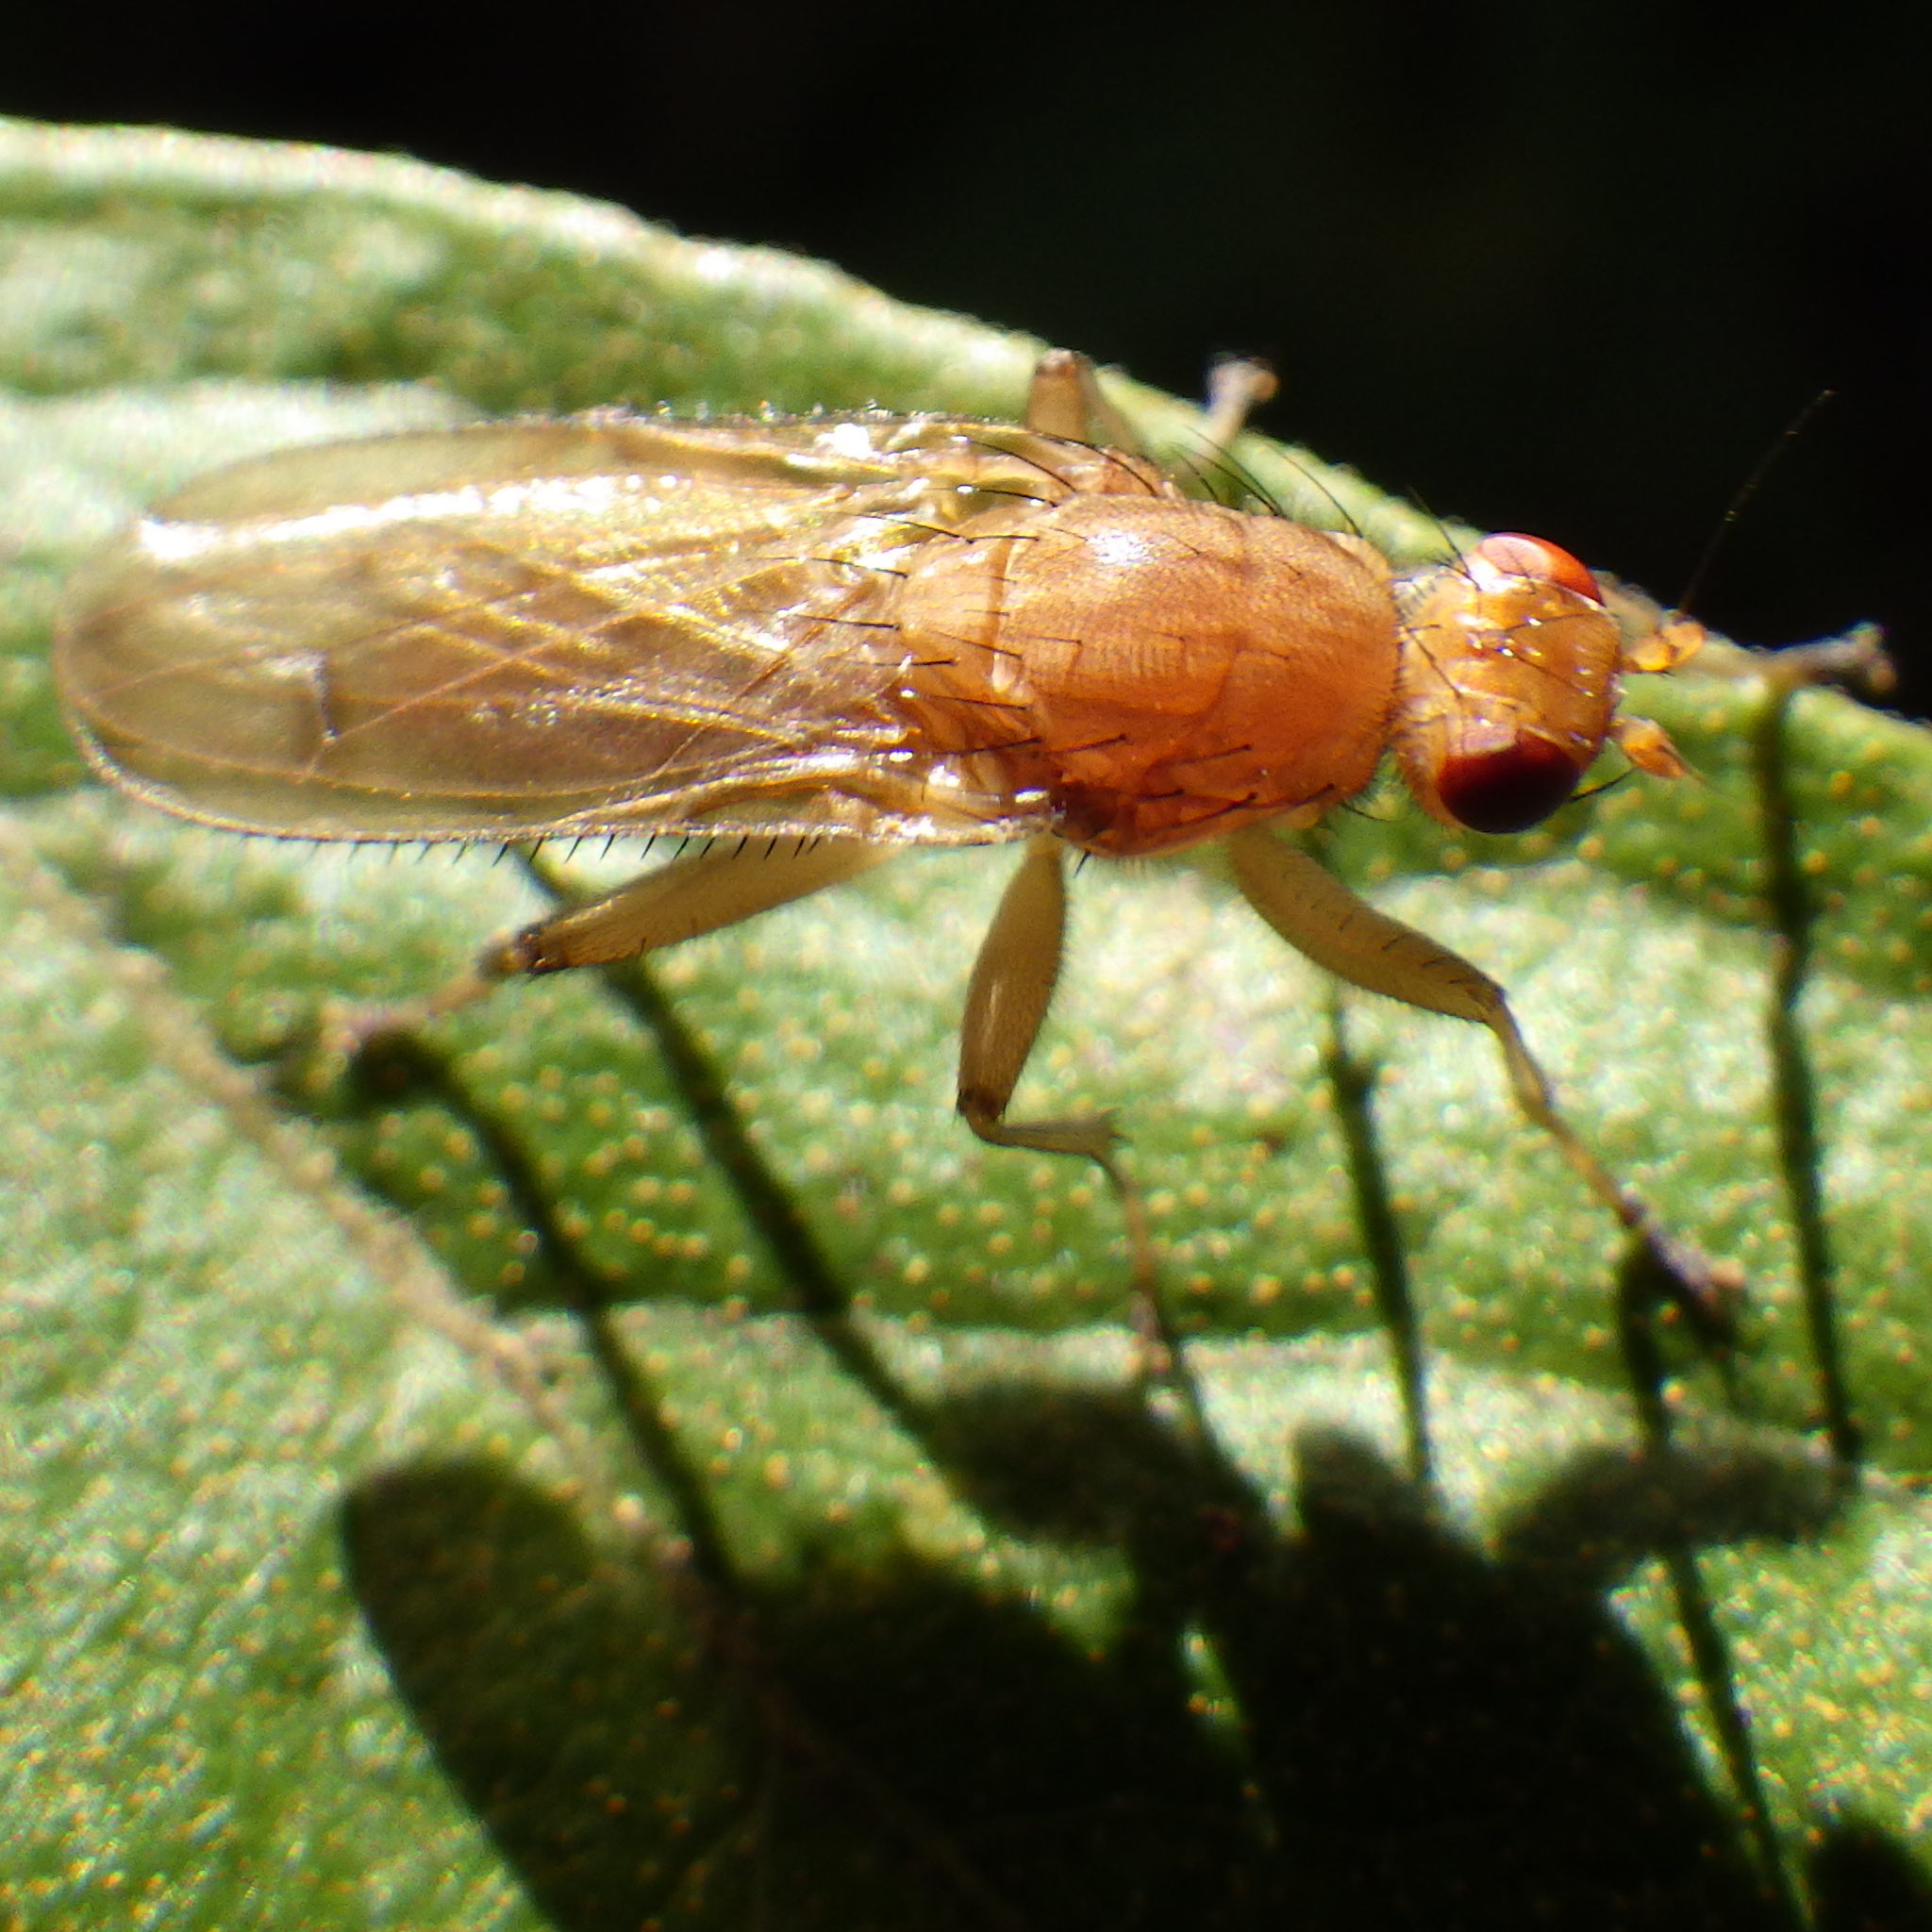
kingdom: Animalia
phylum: Arthropoda
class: Insecta
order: Diptera
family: Heleomyzidae
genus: Amoebaleria
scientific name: Amoebaleria helvola
